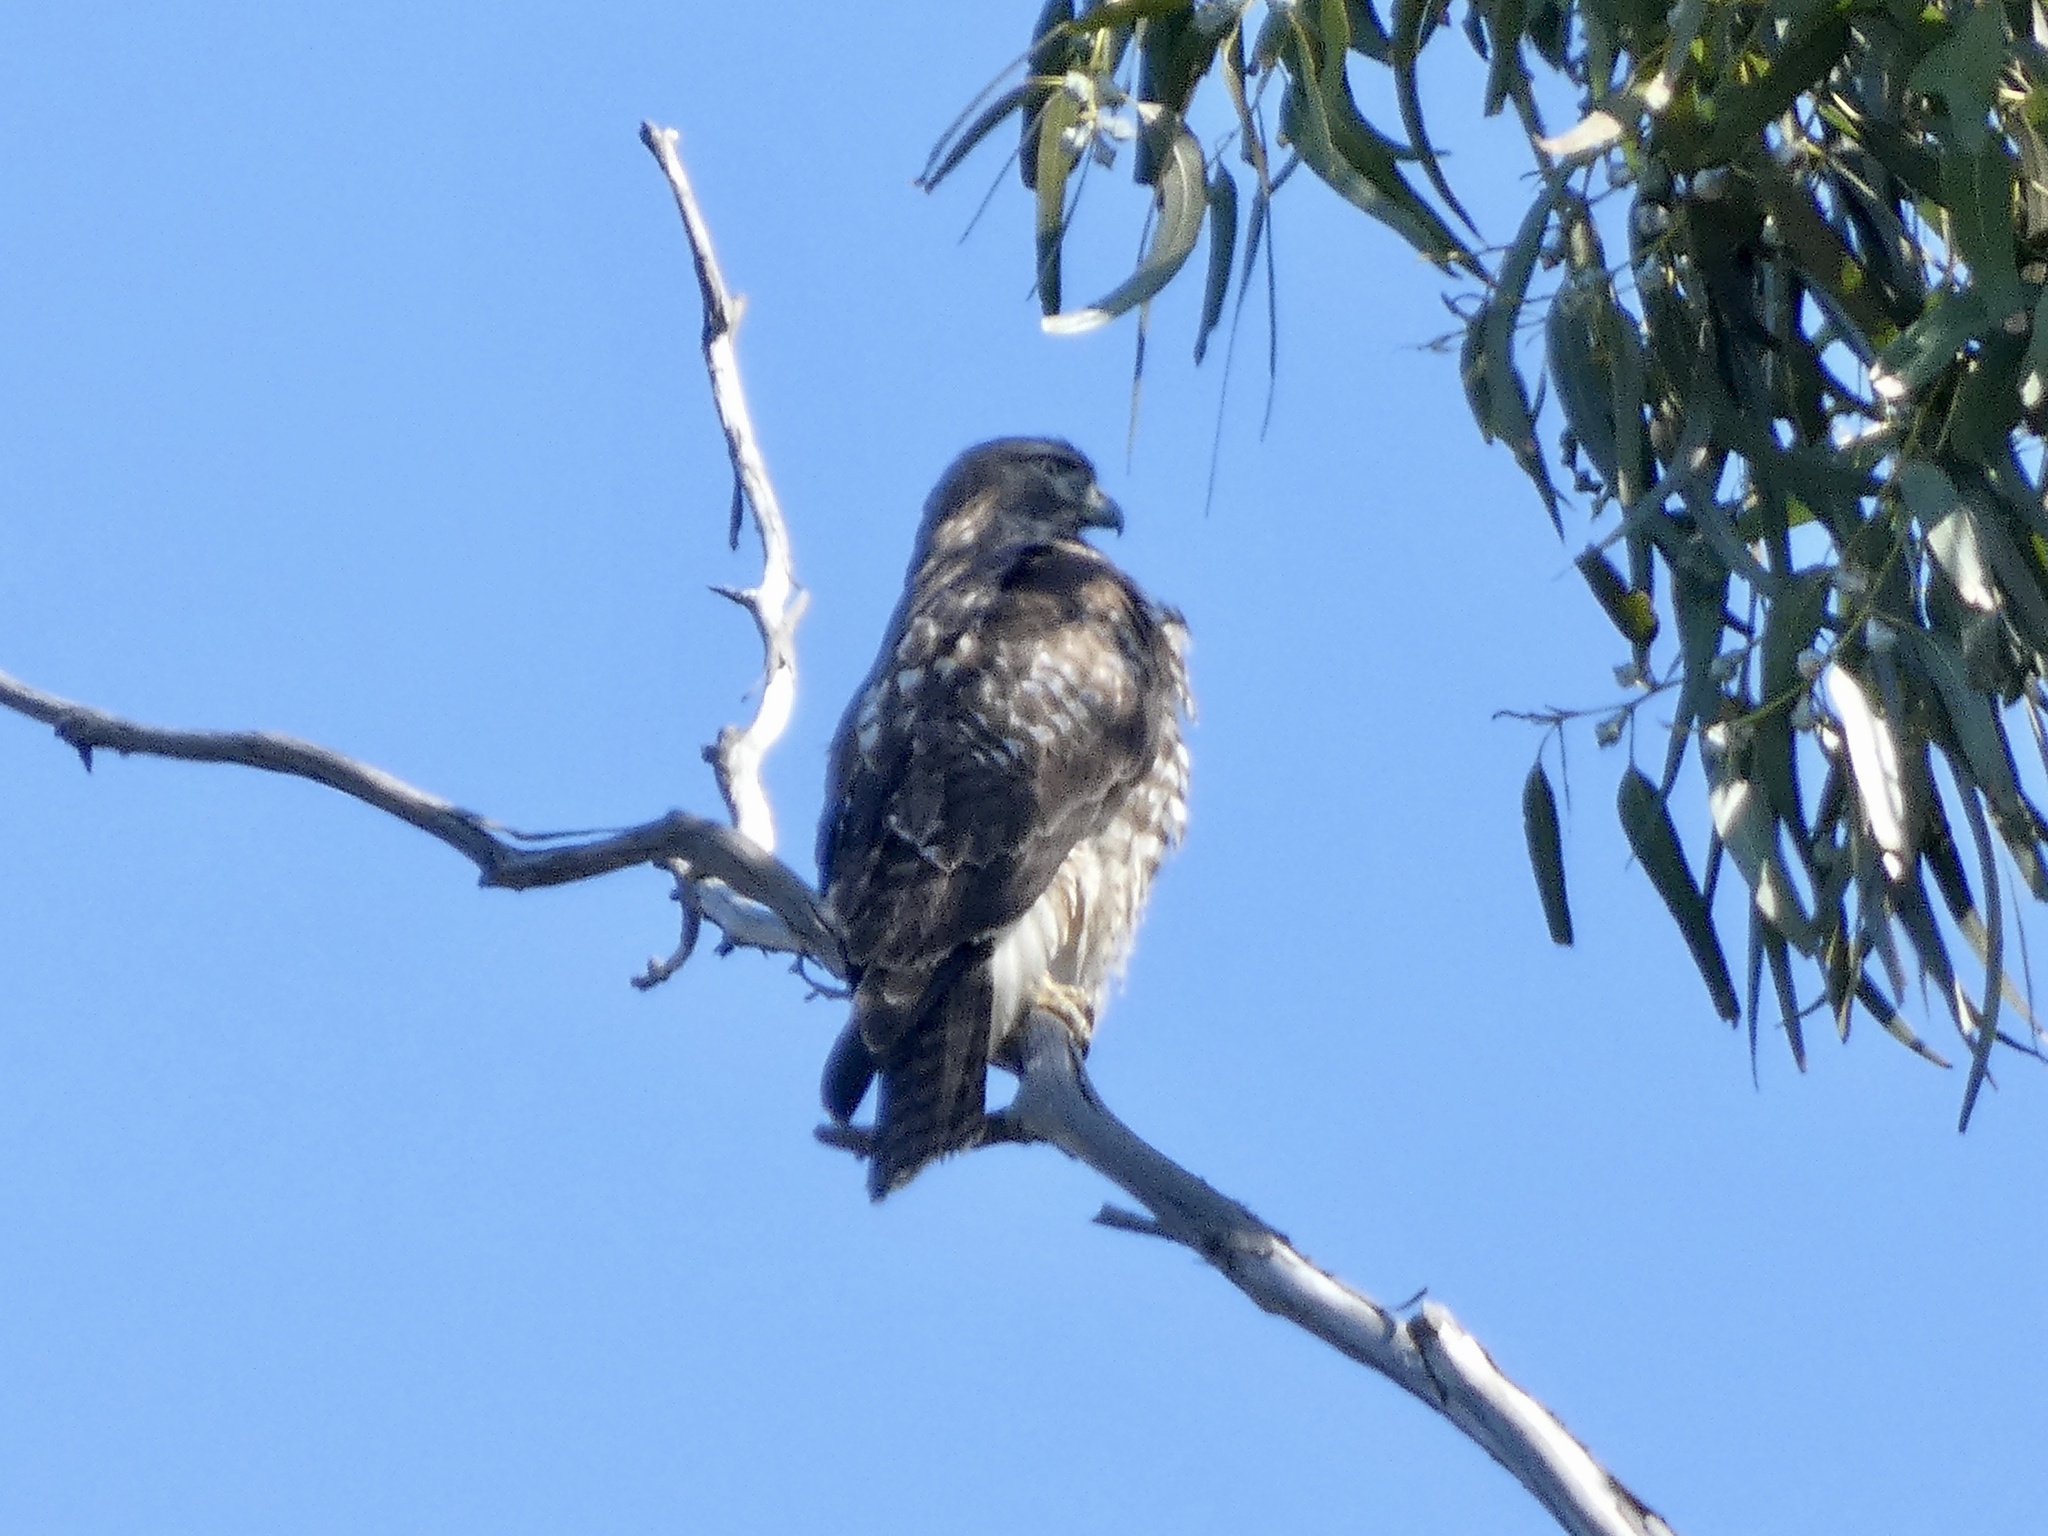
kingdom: Animalia
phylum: Chordata
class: Aves
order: Accipitriformes
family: Accipitridae
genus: Buteo
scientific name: Buteo jamaicensis
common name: Red-tailed hawk
